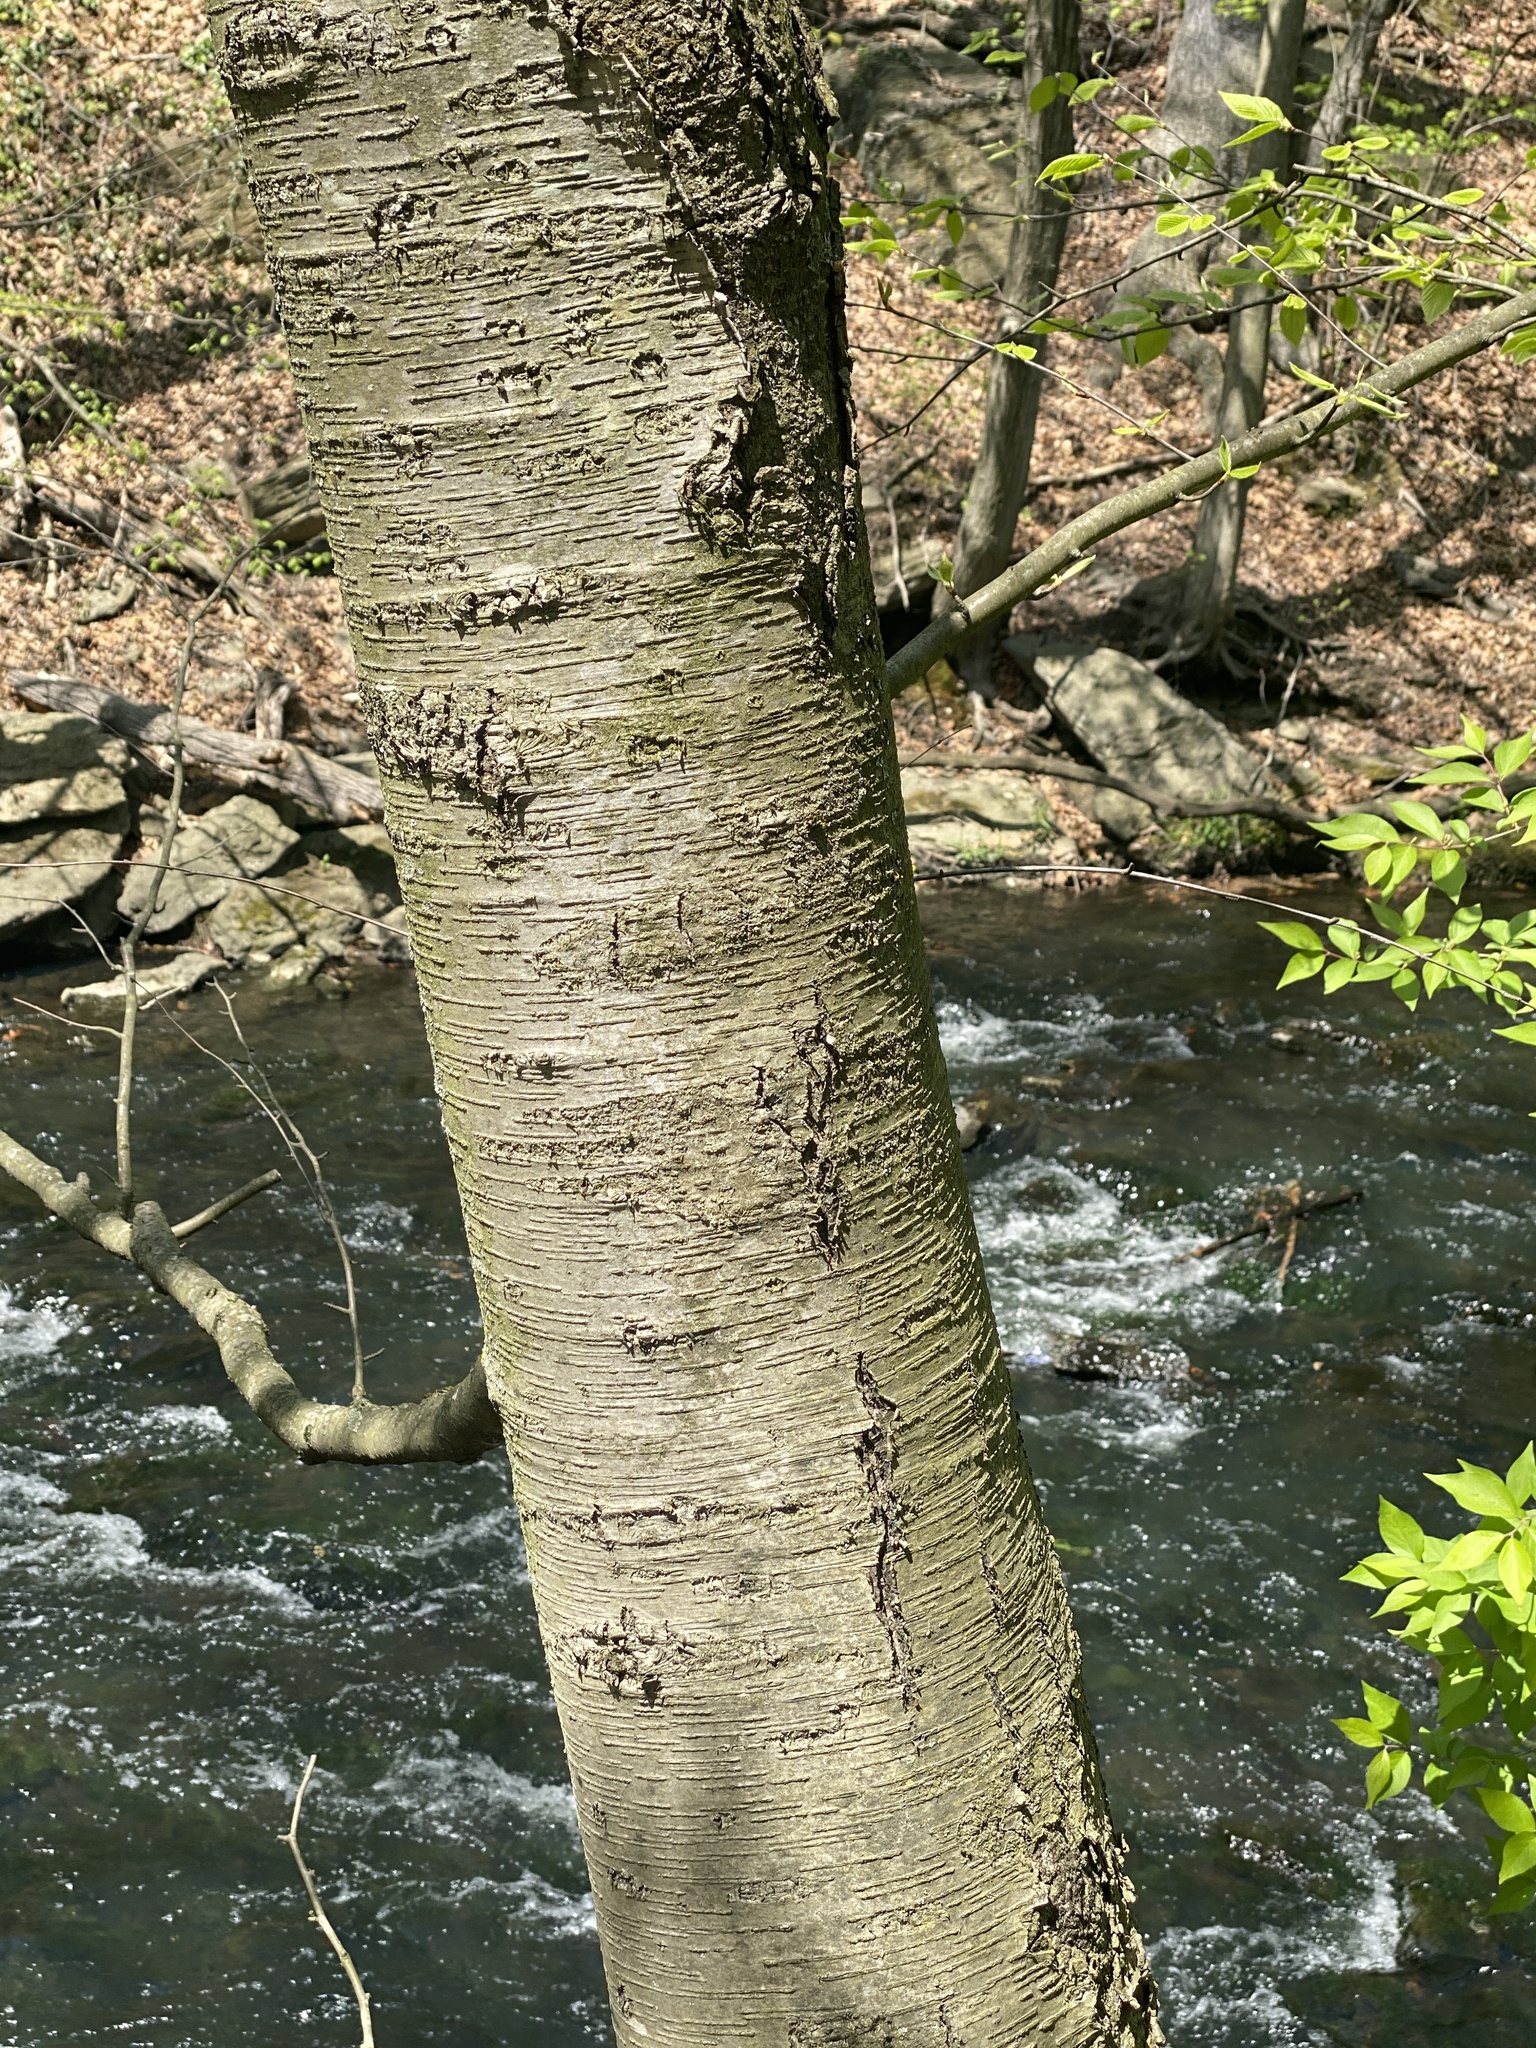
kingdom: Plantae
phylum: Tracheophyta
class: Magnoliopsida
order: Fagales
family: Betulaceae
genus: Betula
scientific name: Betula lenta
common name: Black birch
